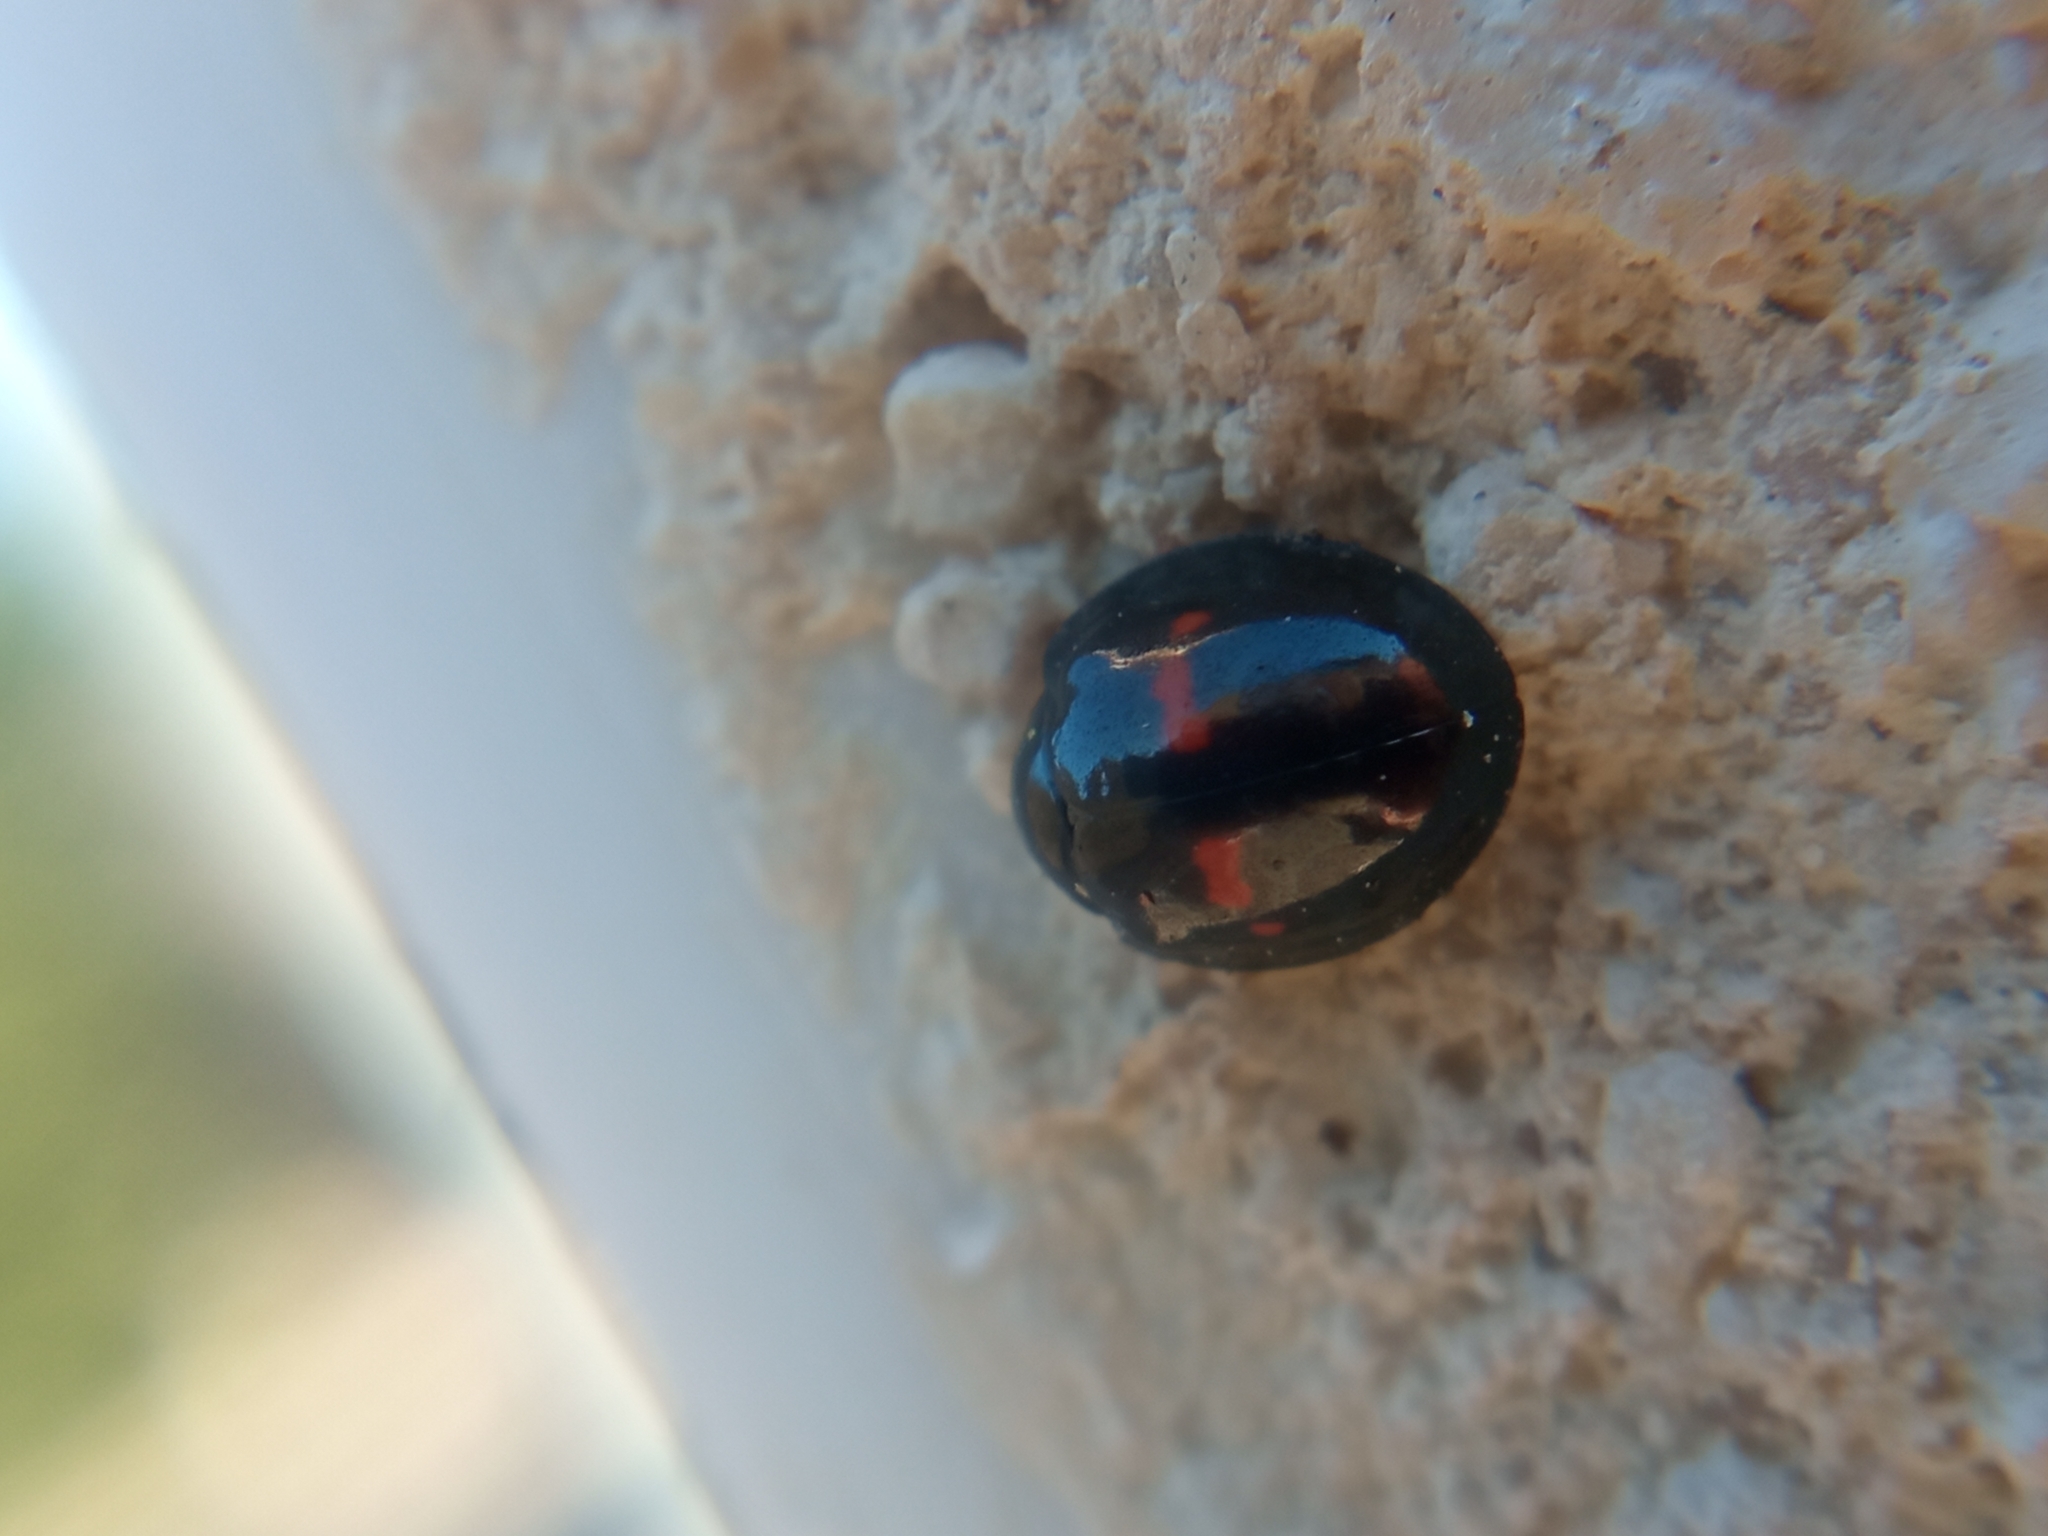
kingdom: Animalia
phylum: Arthropoda
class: Insecta
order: Coleoptera
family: Coccinellidae
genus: Chilocorus
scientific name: Chilocorus bipustulatus
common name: Heather ladybird
